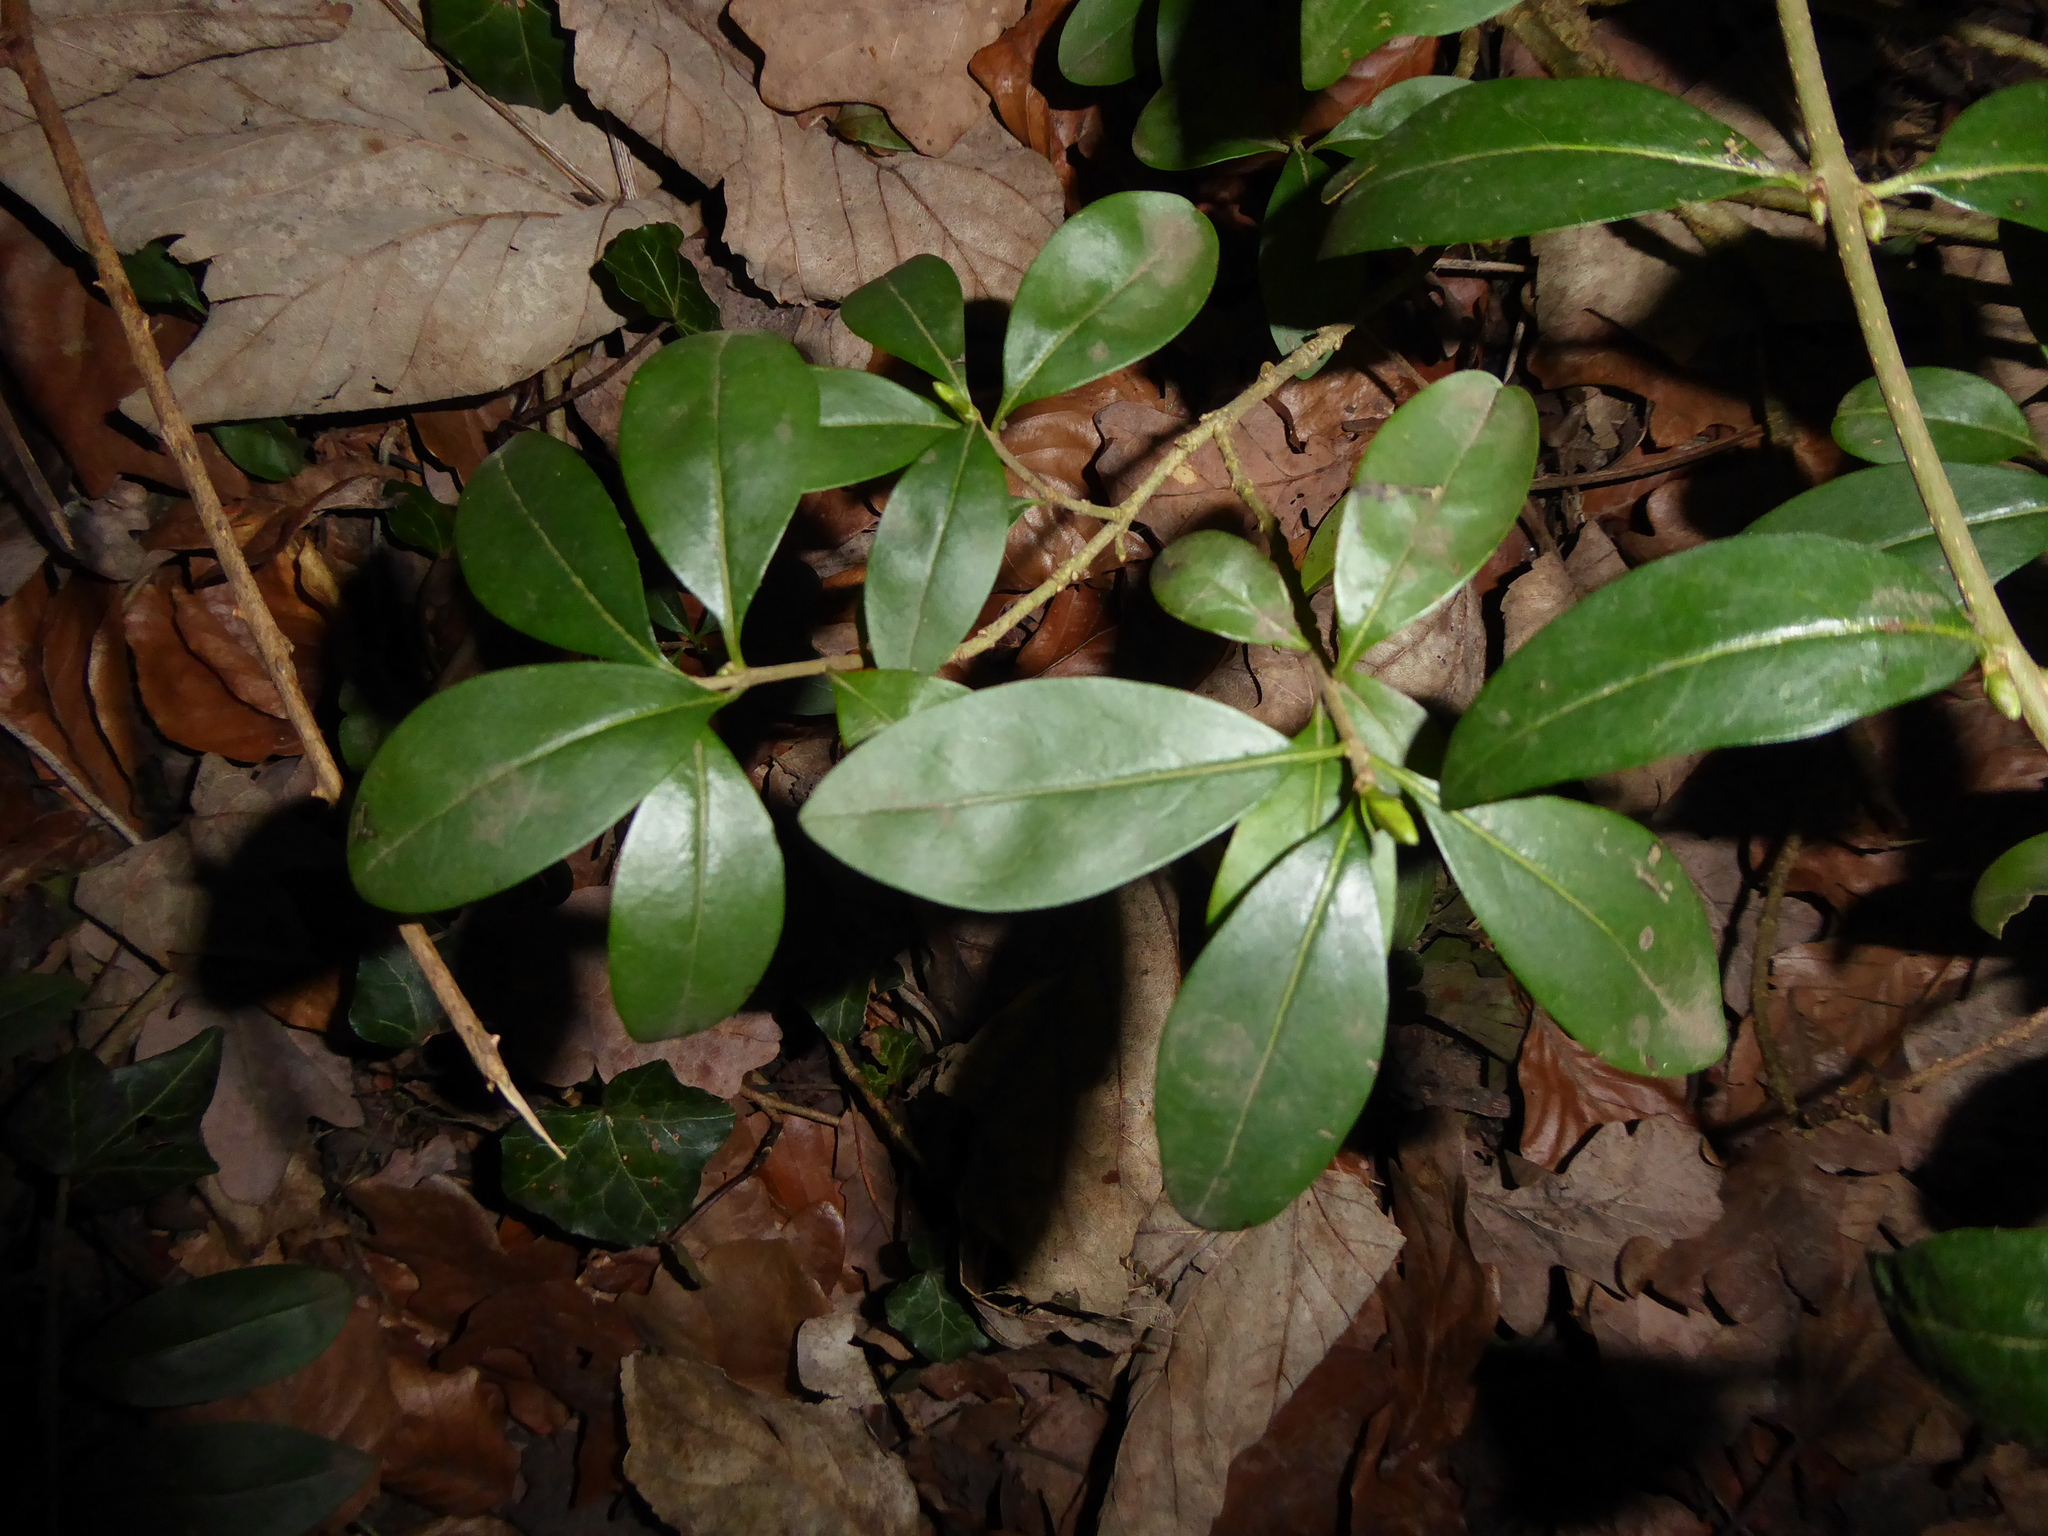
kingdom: Plantae
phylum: Tracheophyta
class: Magnoliopsida
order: Lamiales
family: Oleaceae
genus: Ligustrum
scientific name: Ligustrum vulgare
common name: Wild privet
